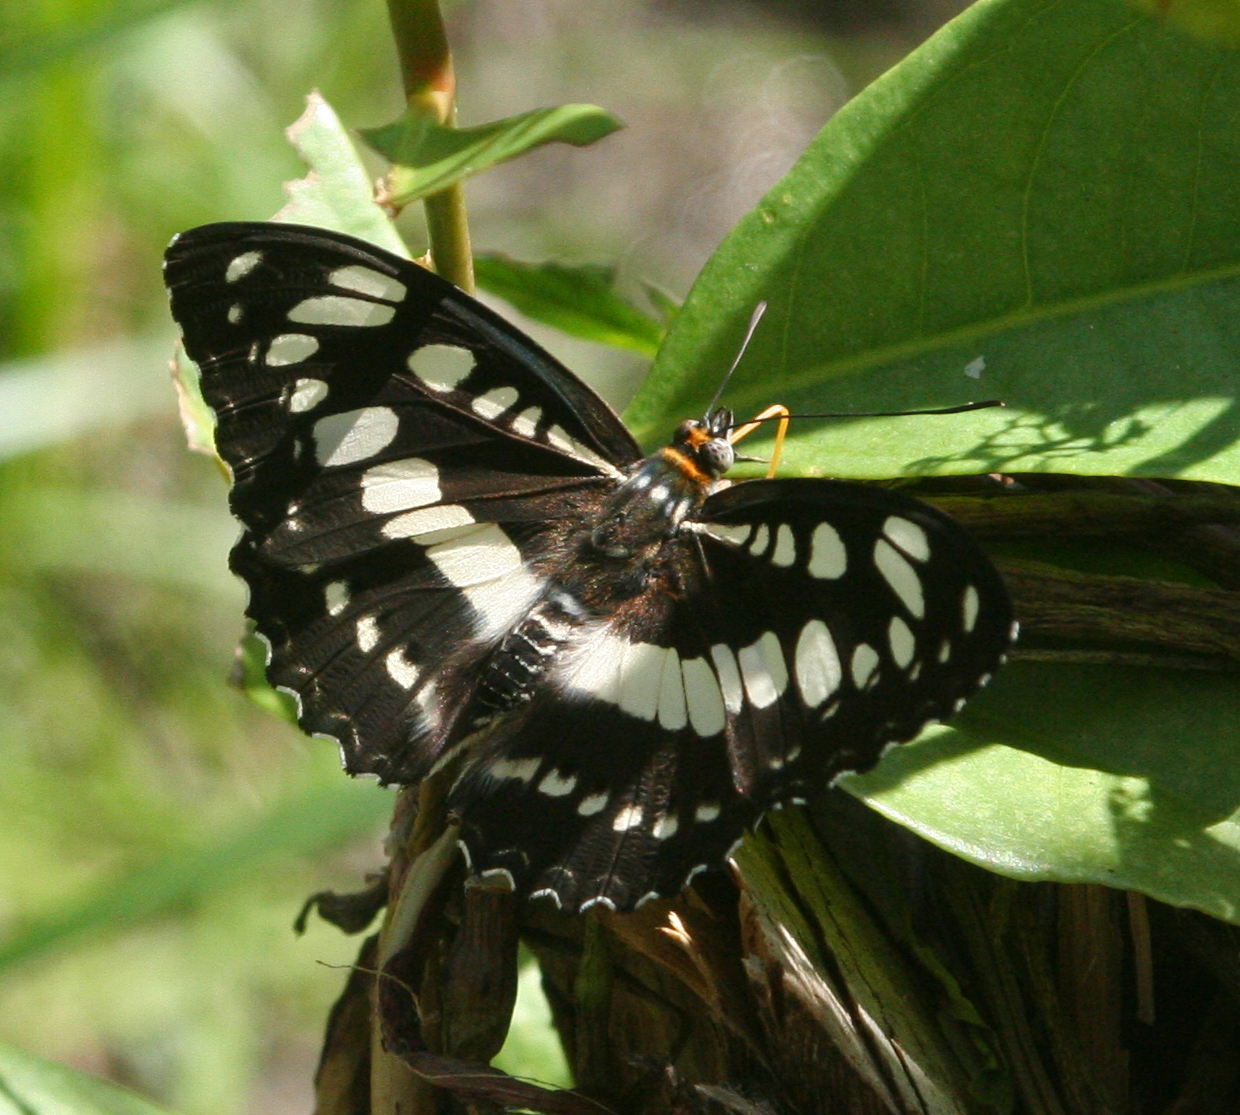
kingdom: Animalia
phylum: Arthropoda
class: Insecta
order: Lepidoptera
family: Nymphalidae
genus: Parathyma
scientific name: Parathyma perius
